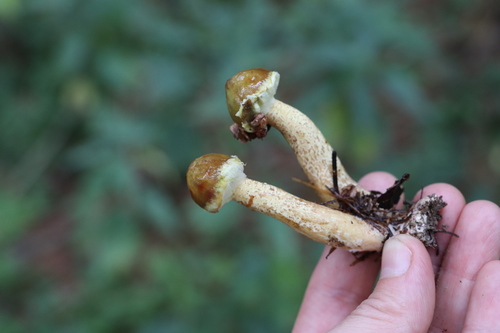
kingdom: Fungi
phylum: Basidiomycota
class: Agaricomycetes
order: Boletales
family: Suillaceae
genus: Suillus
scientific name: Suillus americanus
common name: Chicken fat mushroom
